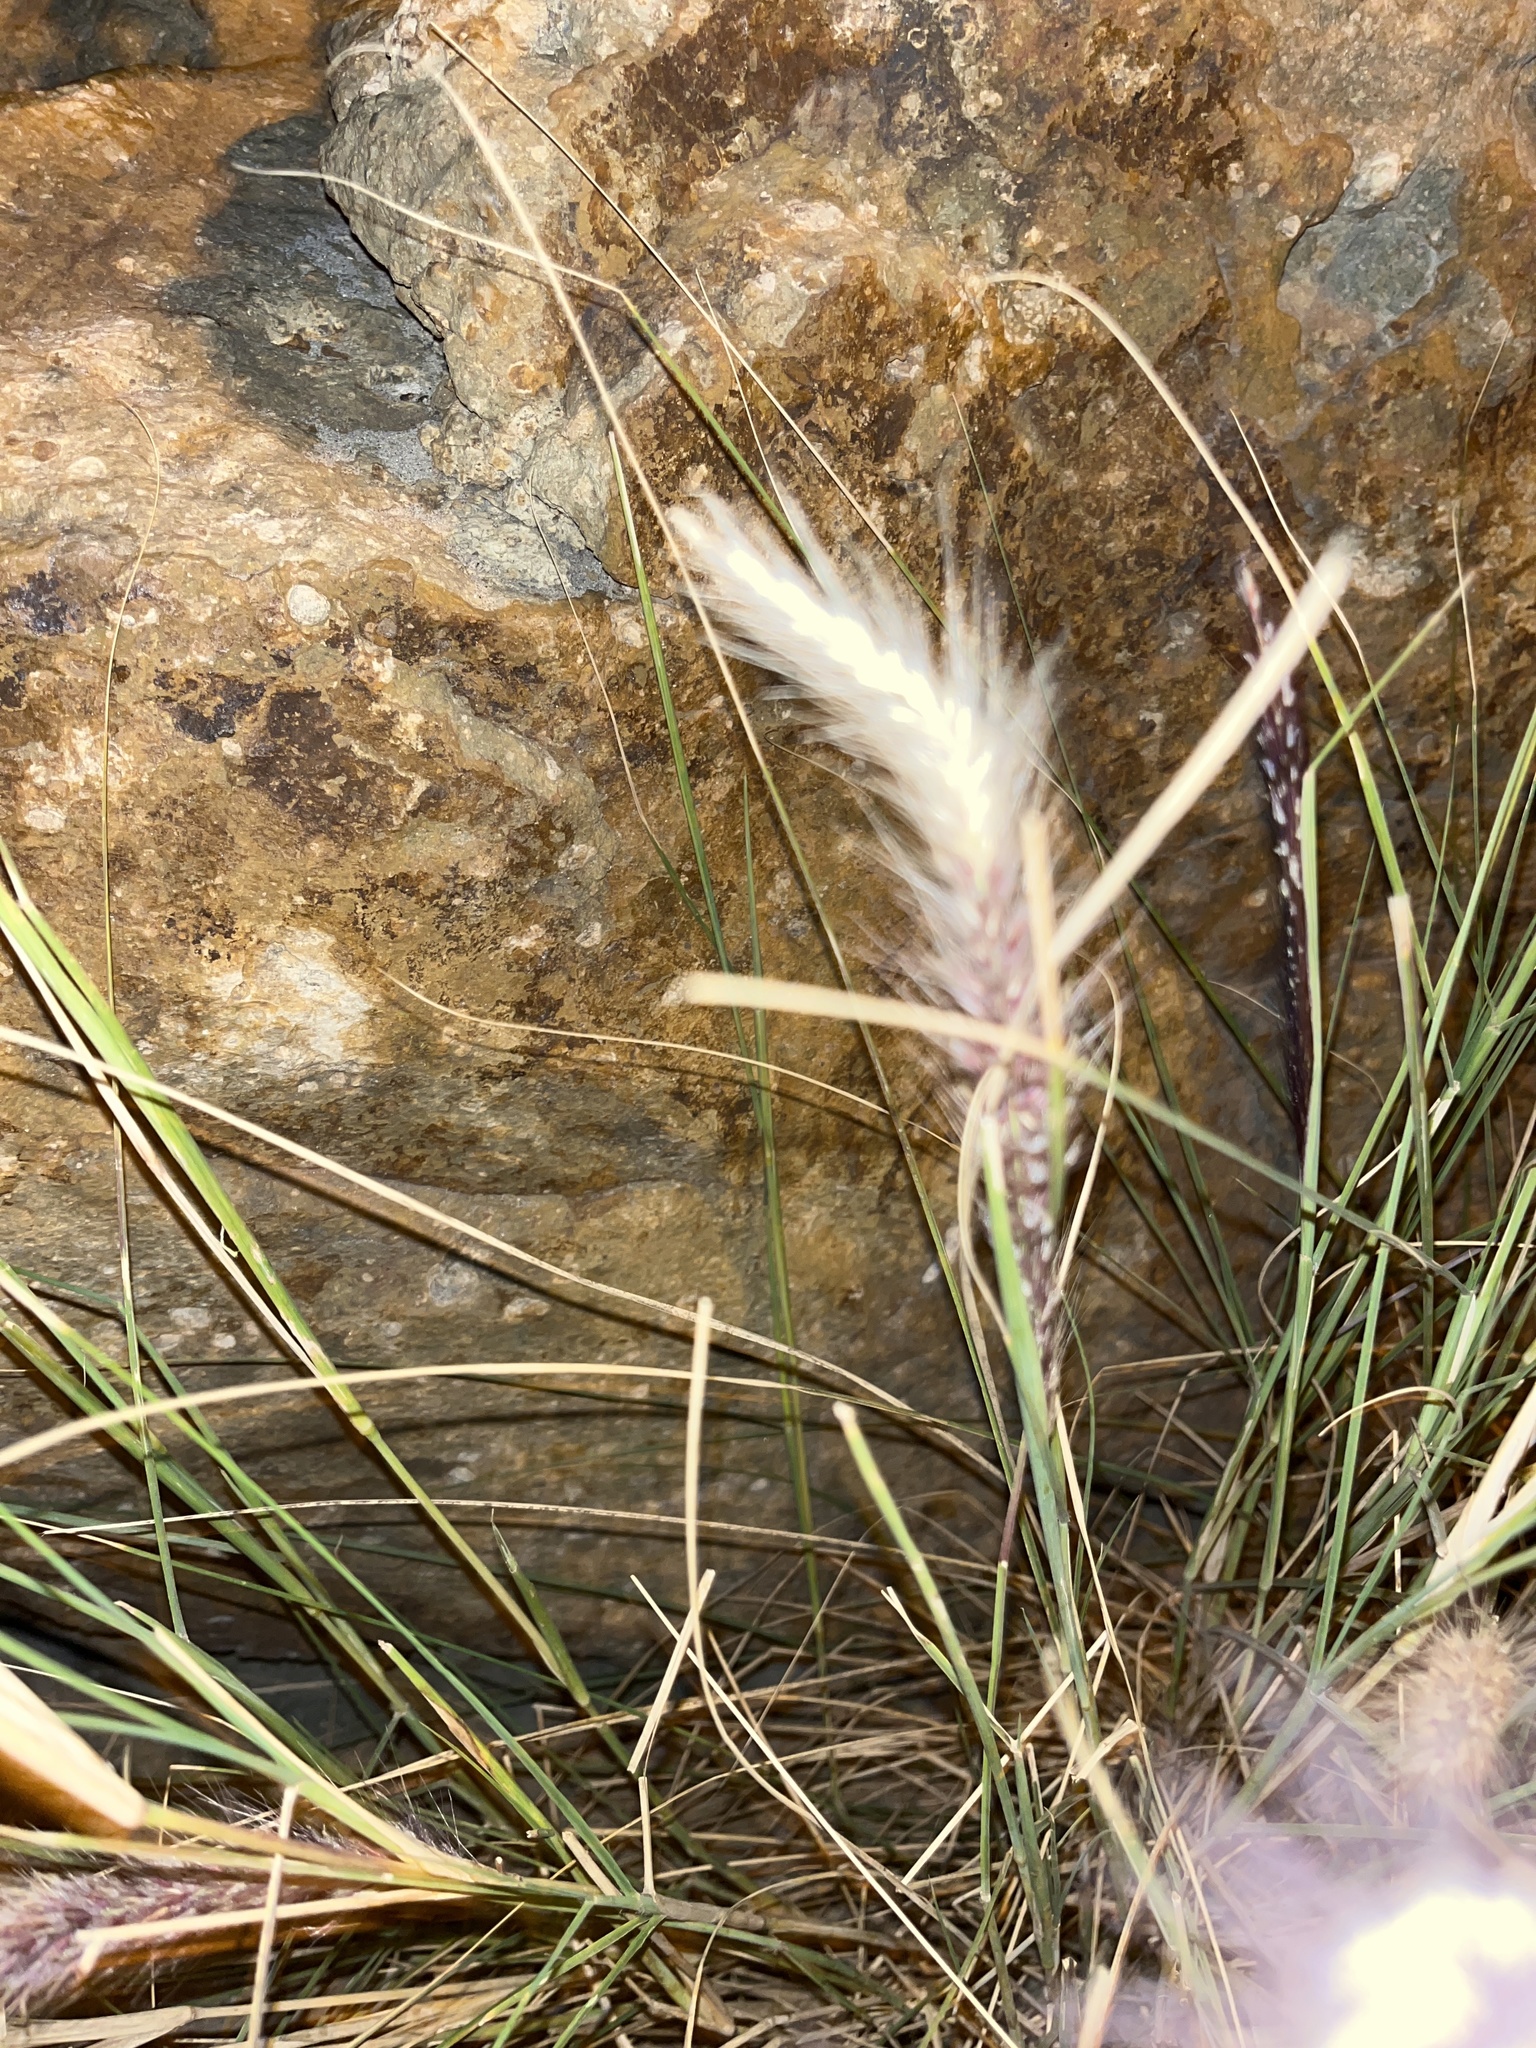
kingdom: Plantae
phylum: Tracheophyta
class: Liliopsida
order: Poales
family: Poaceae
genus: Cenchrus
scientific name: Cenchrus setaceus
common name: Crimson fountaingrass
